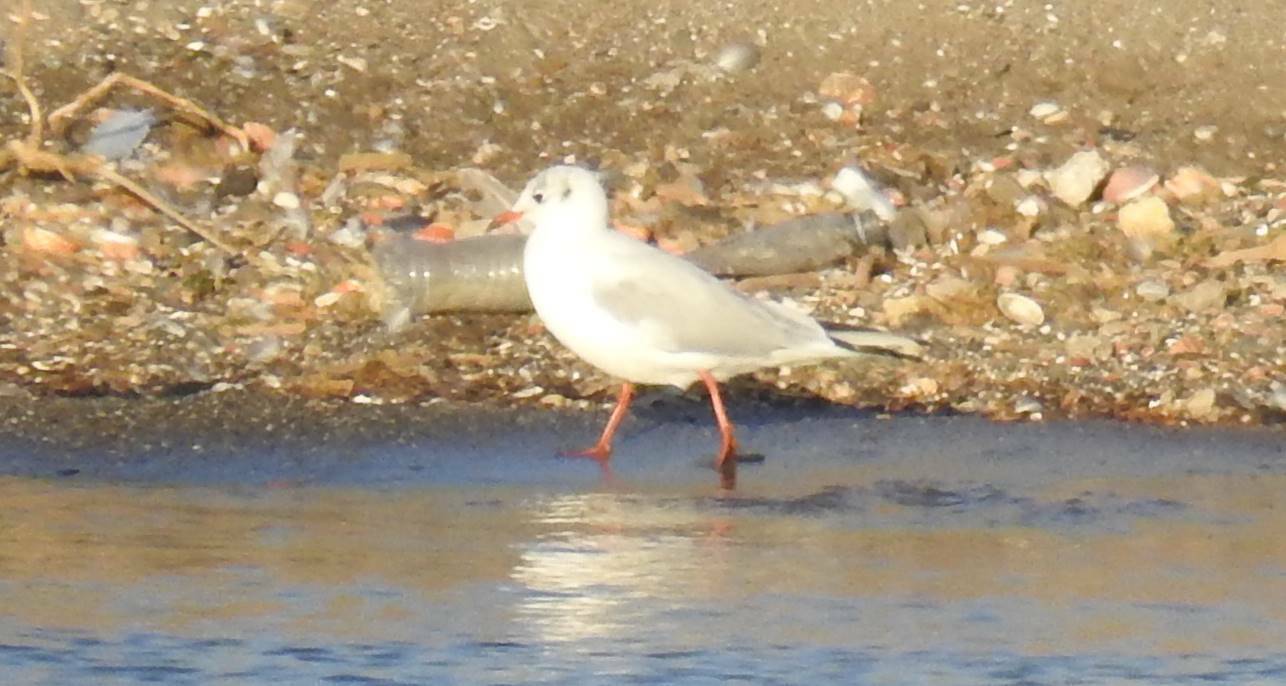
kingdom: Animalia
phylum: Chordata
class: Aves
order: Charadriiformes
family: Laridae
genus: Chroicocephalus
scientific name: Chroicocephalus ridibundus
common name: Black-headed gull
